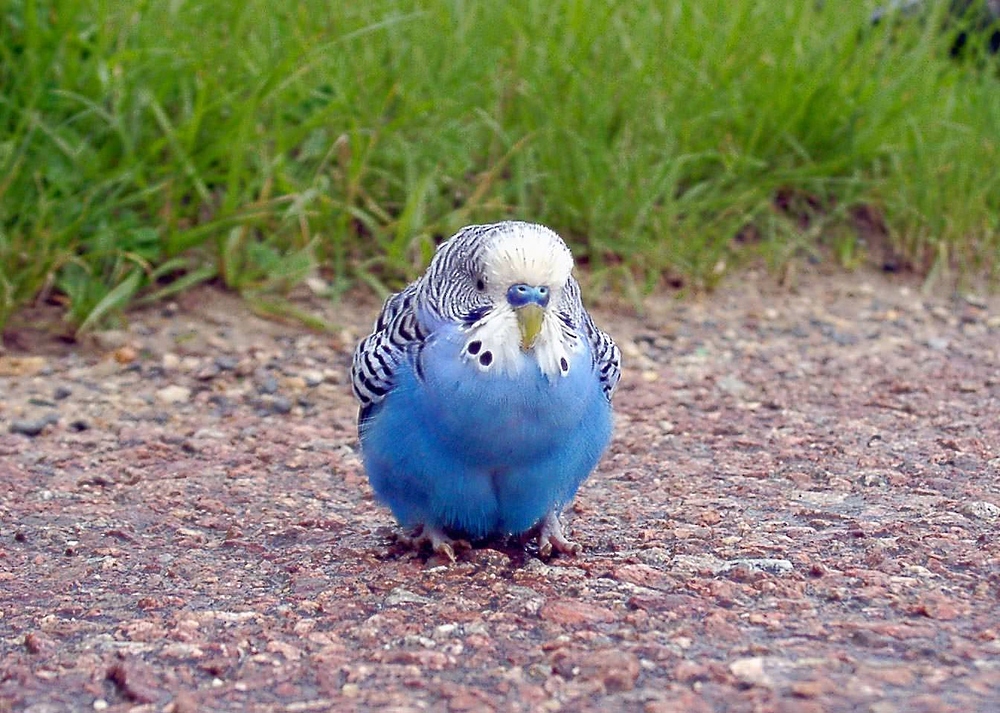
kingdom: Animalia
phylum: Chordata
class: Aves
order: Psittaciformes
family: Psittacidae
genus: Melopsittacus
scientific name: Melopsittacus undulatus
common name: Budgerigar
